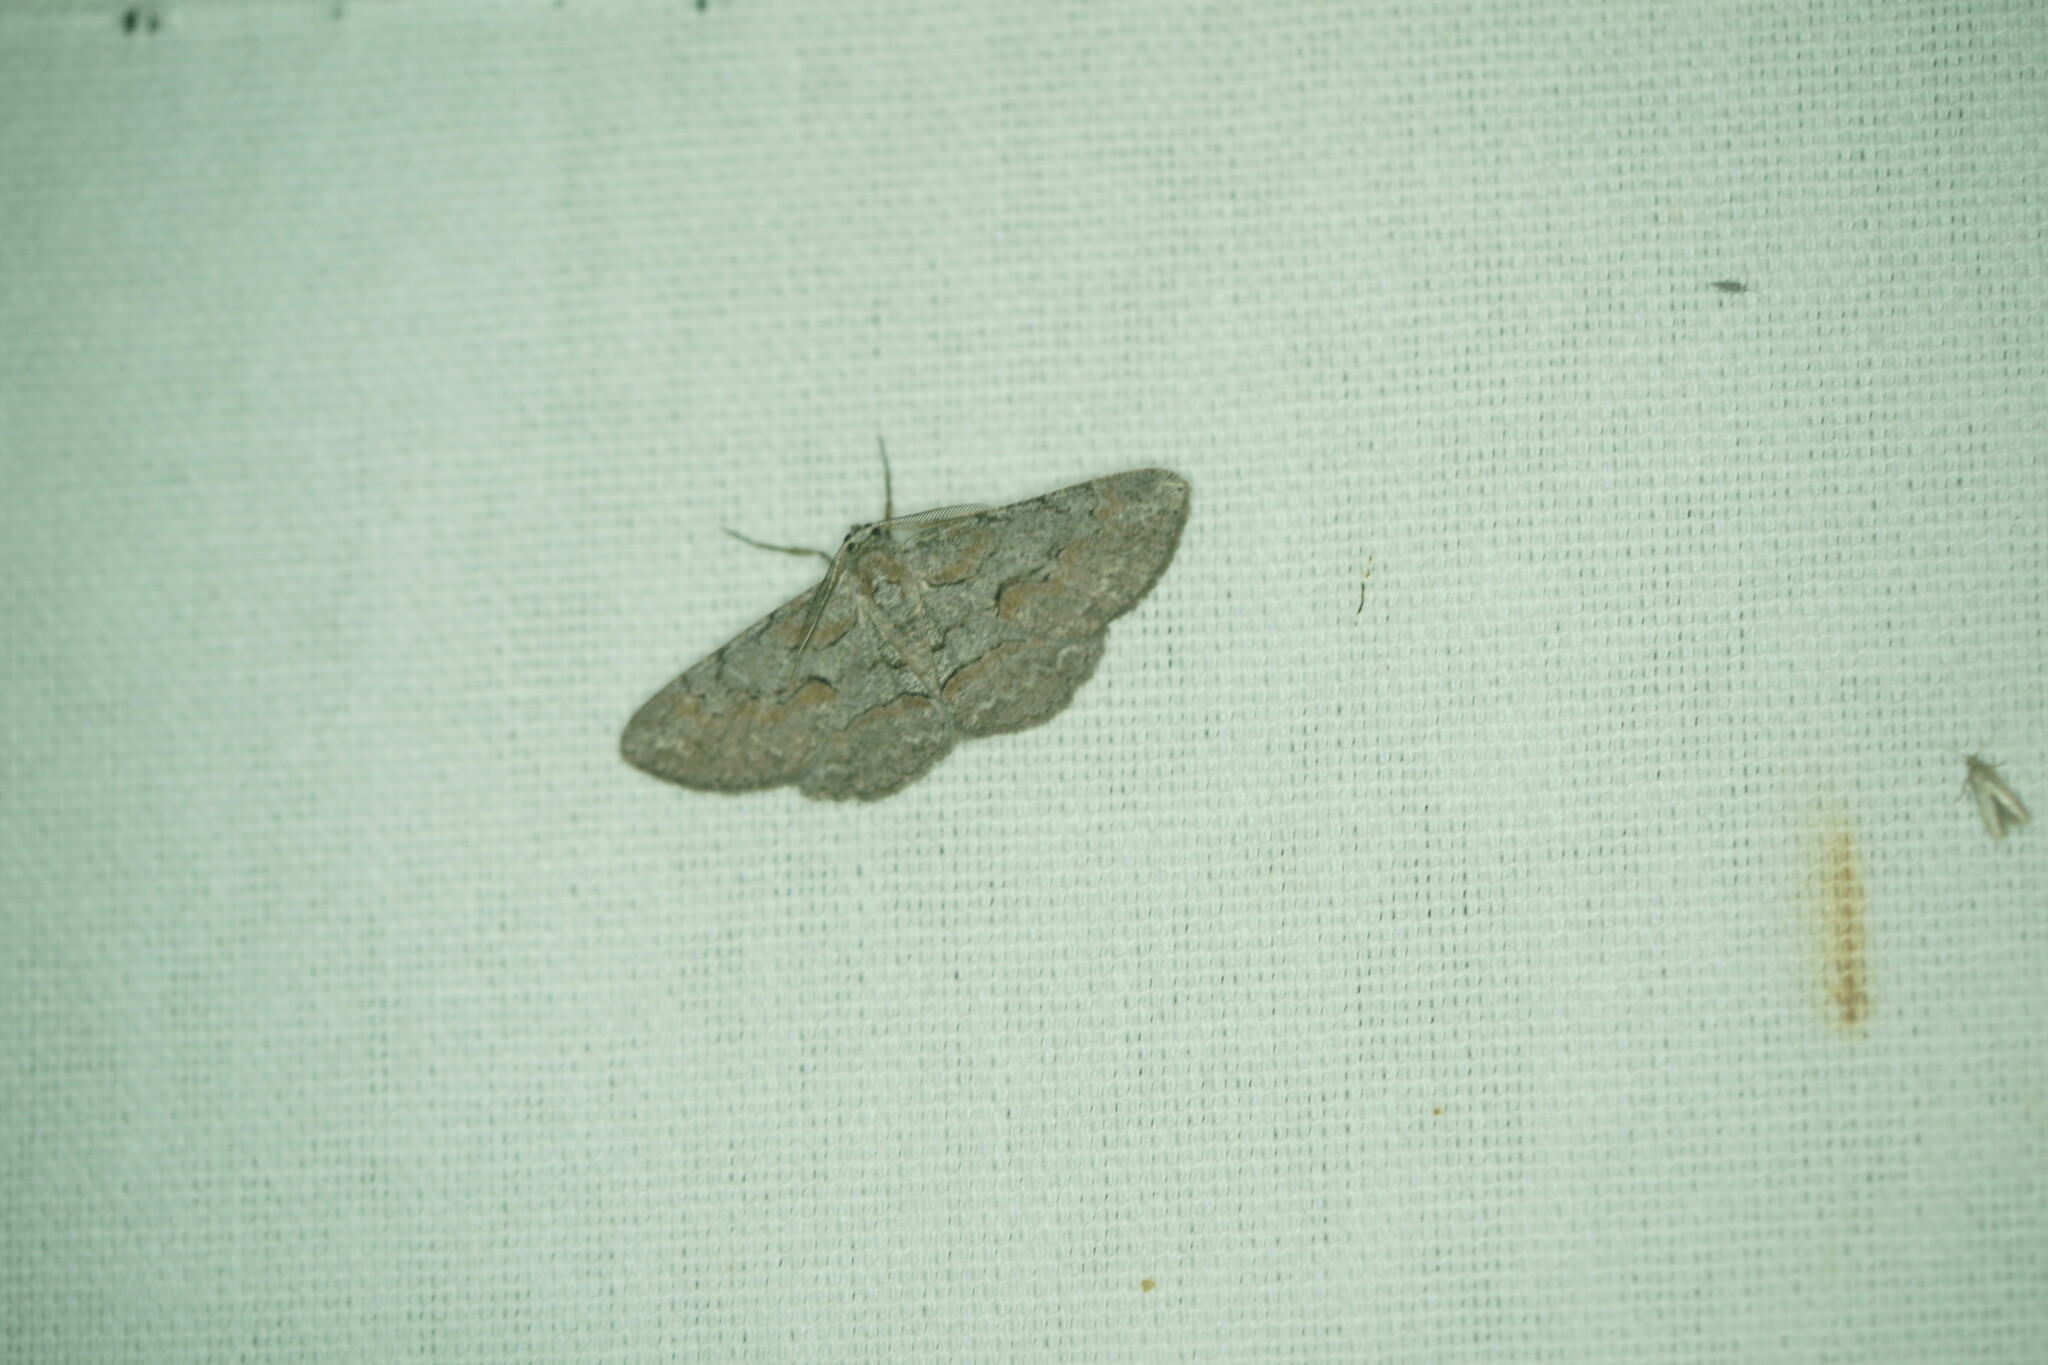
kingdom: Animalia
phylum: Arthropoda
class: Insecta
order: Lepidoptera
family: Geometridae
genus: Iridopsis
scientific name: Iridopsis vellivolata
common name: Large purplish gray
